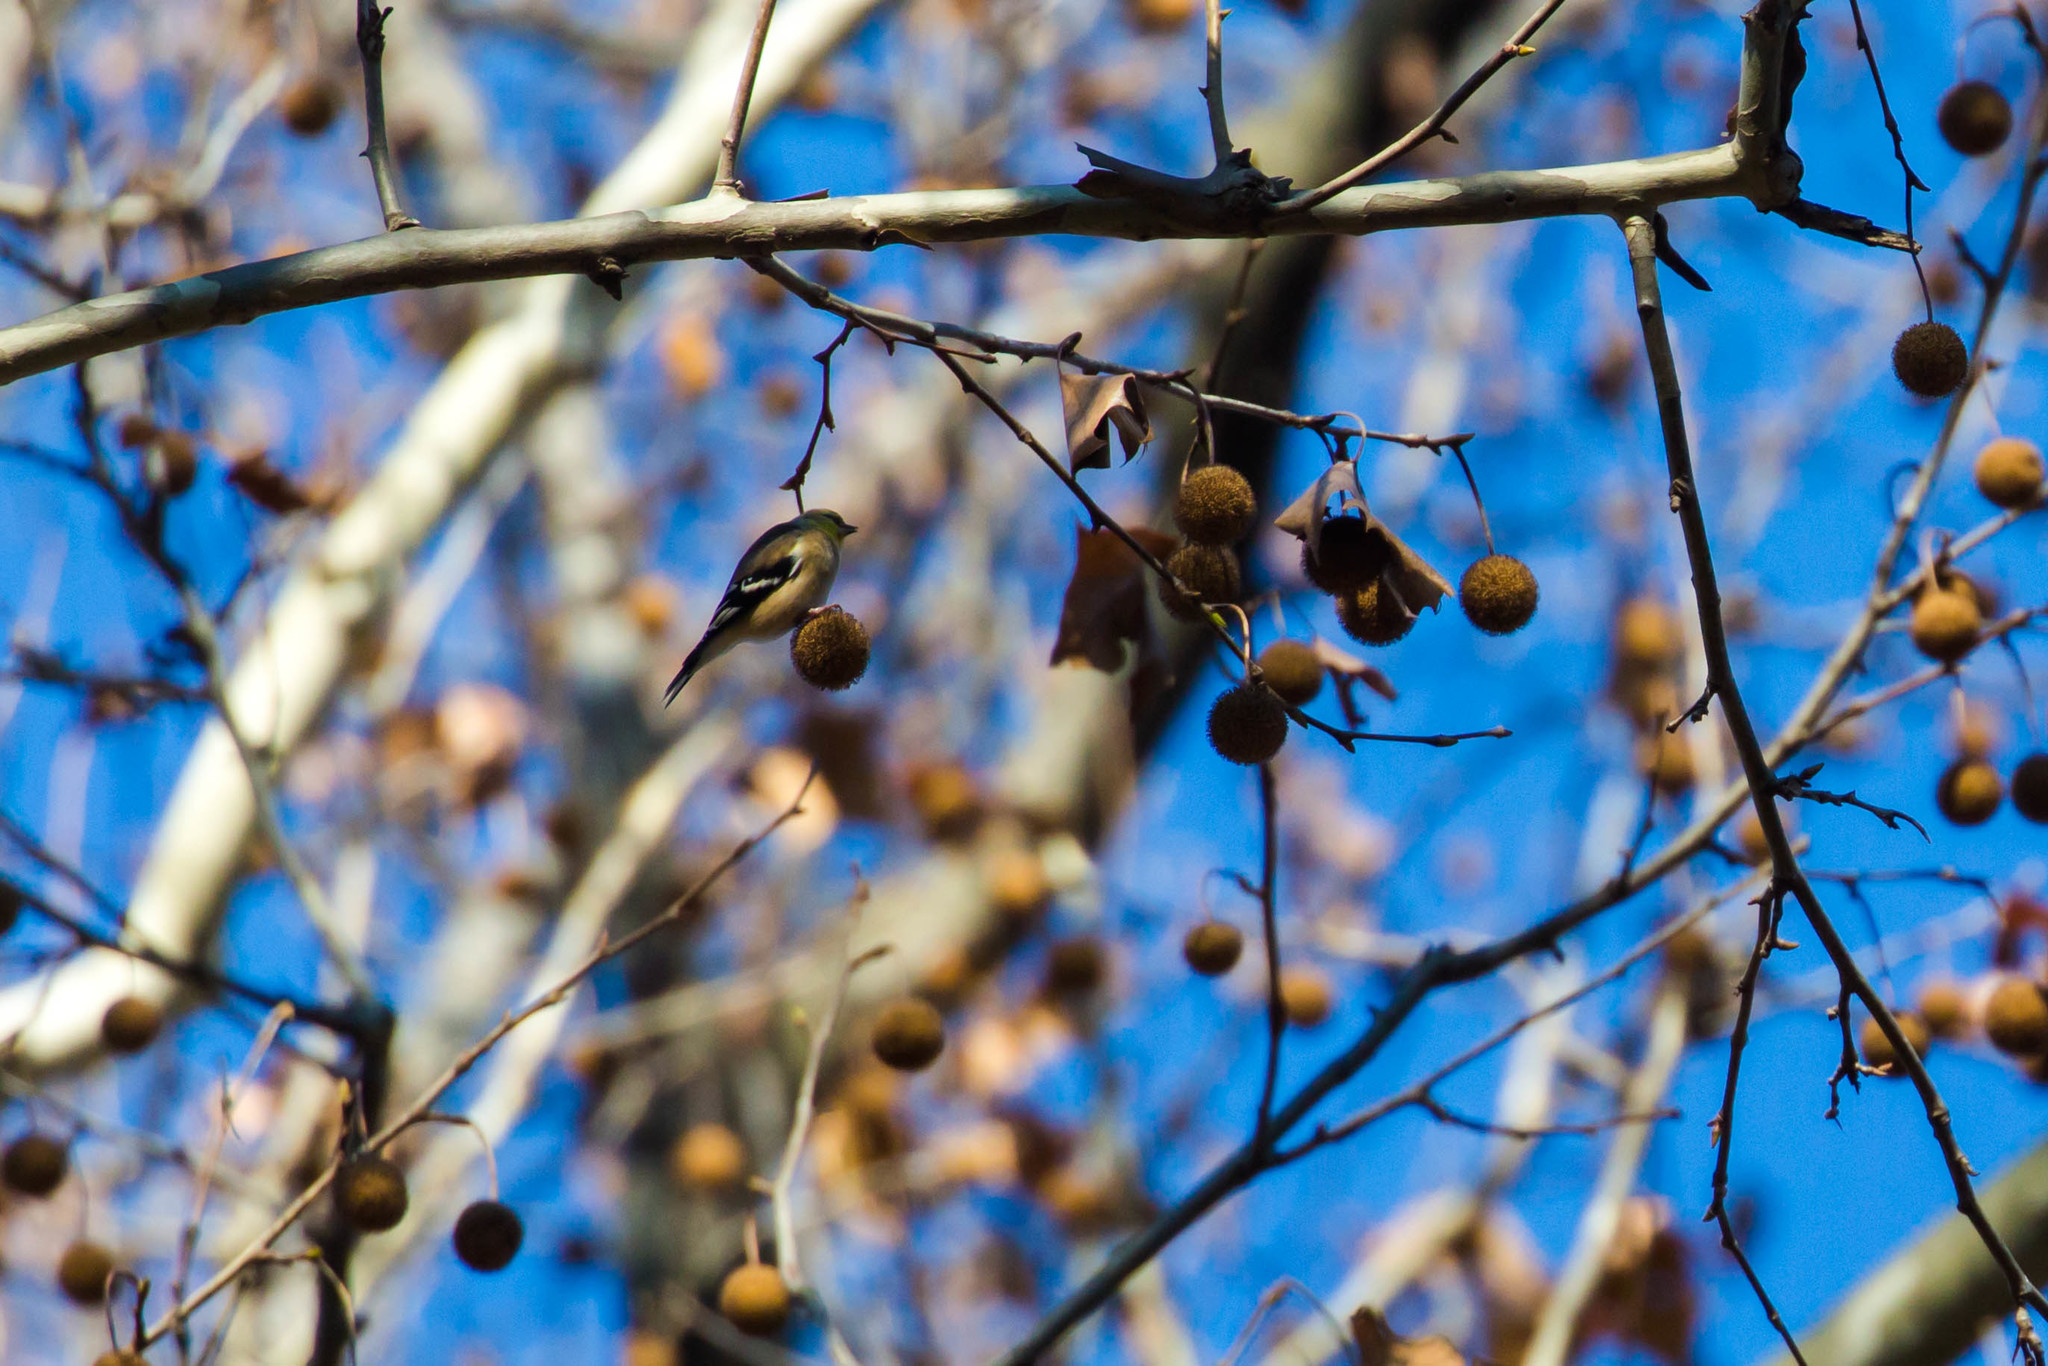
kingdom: Animalia
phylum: Chordata
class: Aves
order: Passeriformes
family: Fringillidae
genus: Spinus
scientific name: Spinus tristis
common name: American goldfinch
